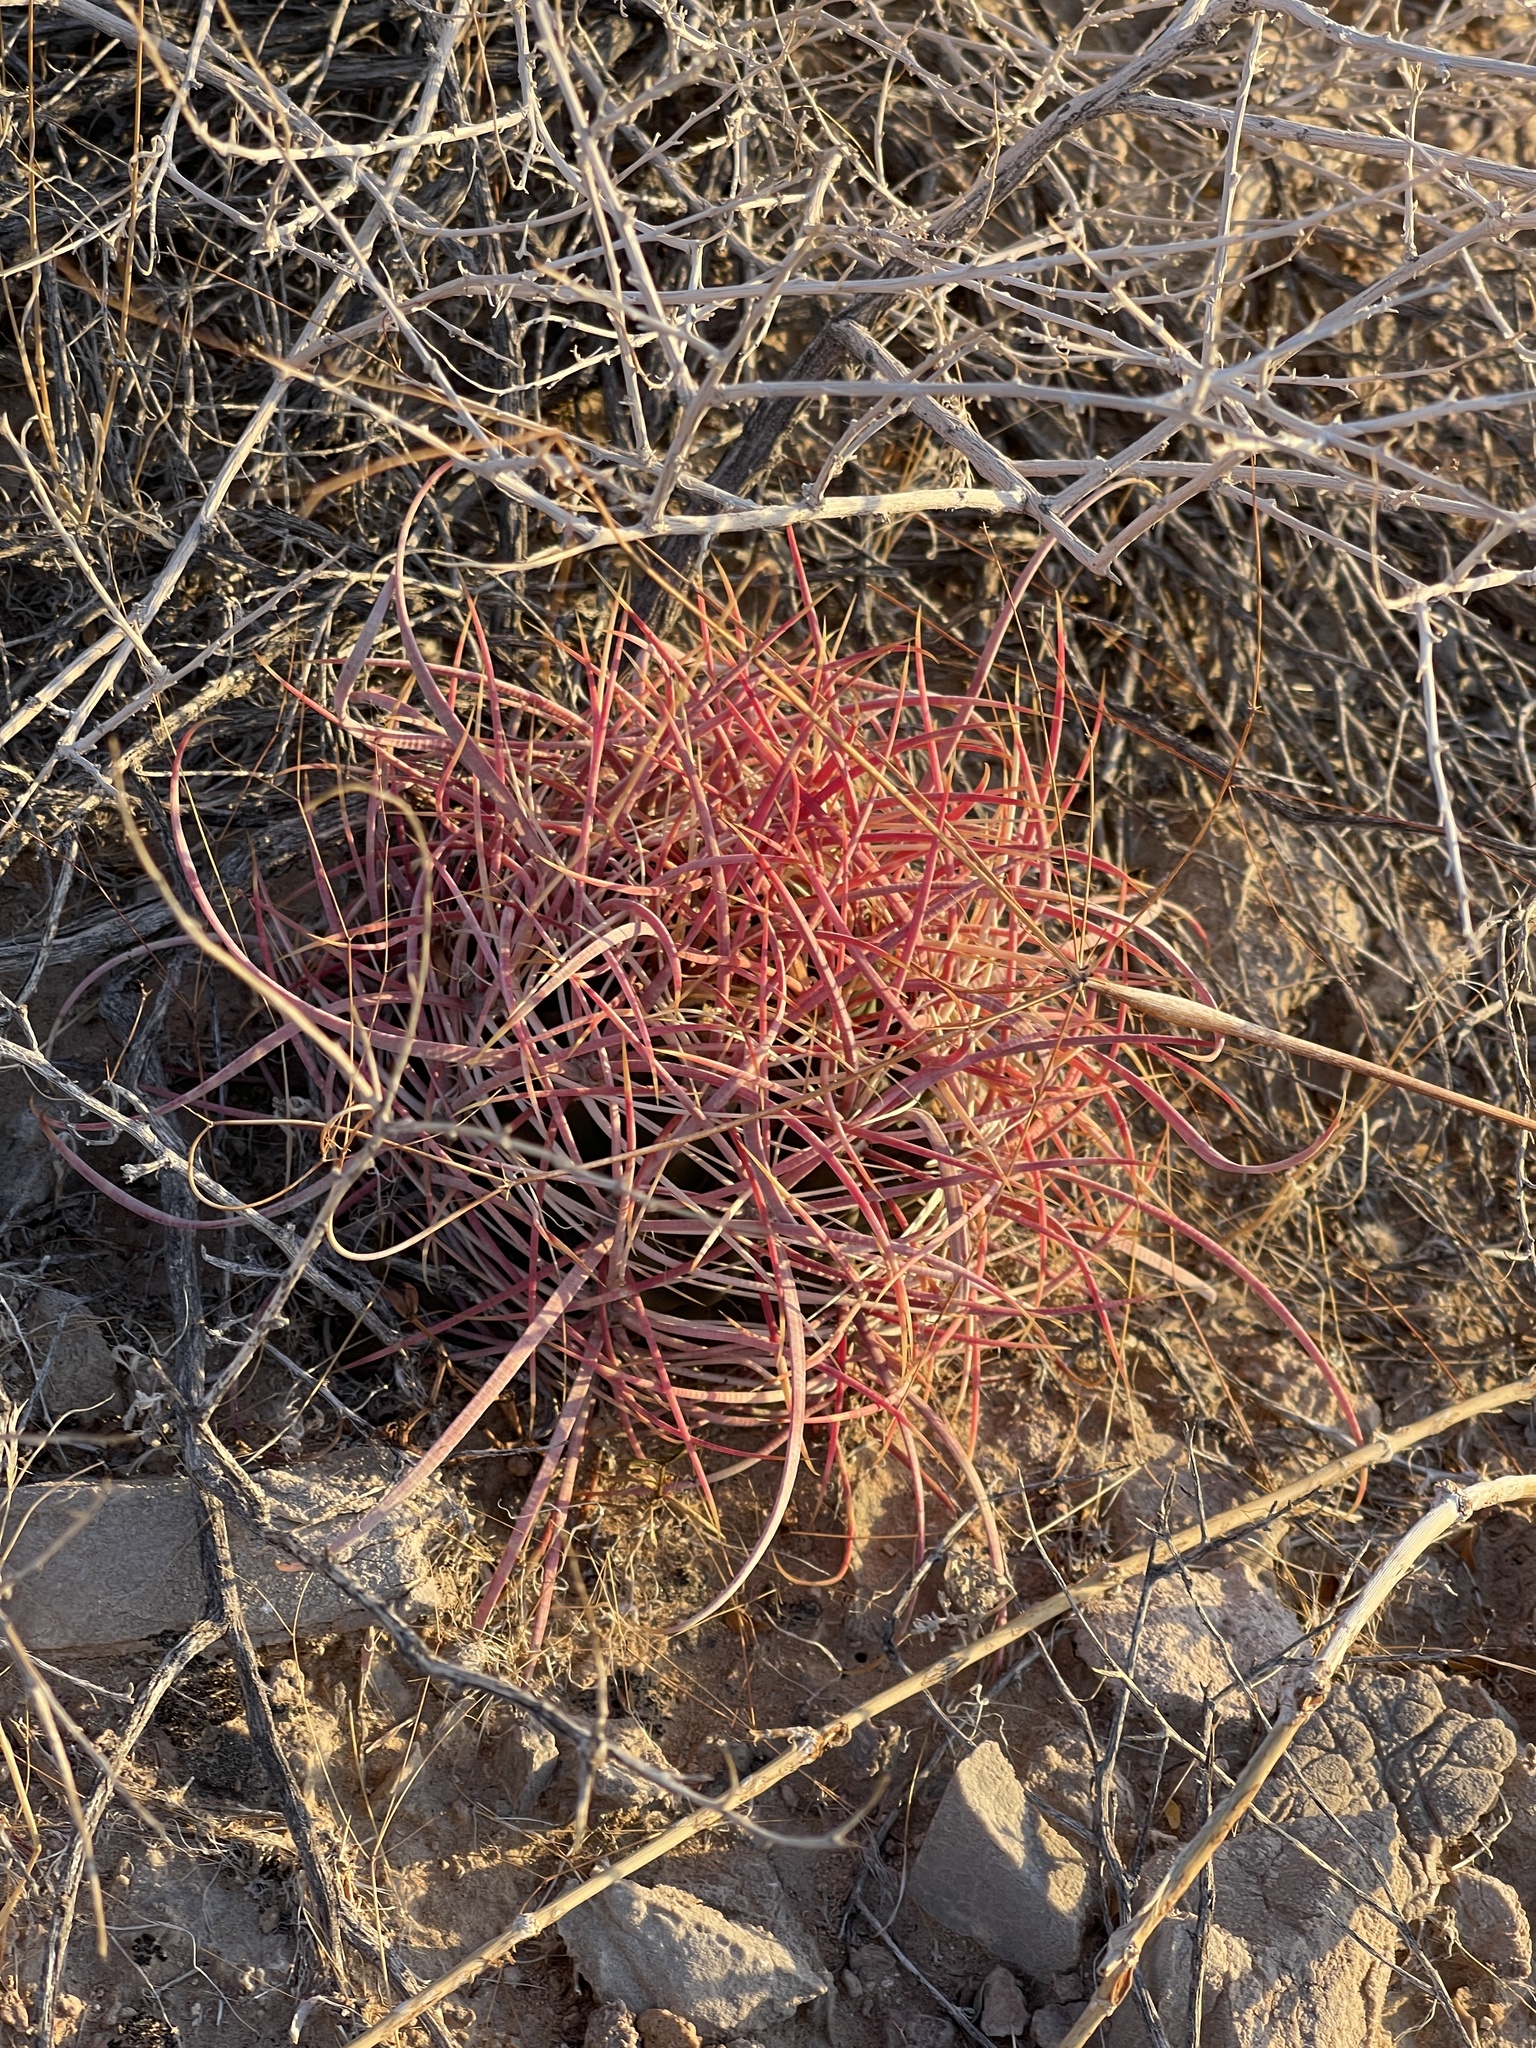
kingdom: Plantae
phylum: Tracheophyta
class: Magnoliopsida
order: Caryophyllales
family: Cactaceae
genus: Ferocactus
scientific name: Ferocactus cylindraceus
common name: California barrel cactus
